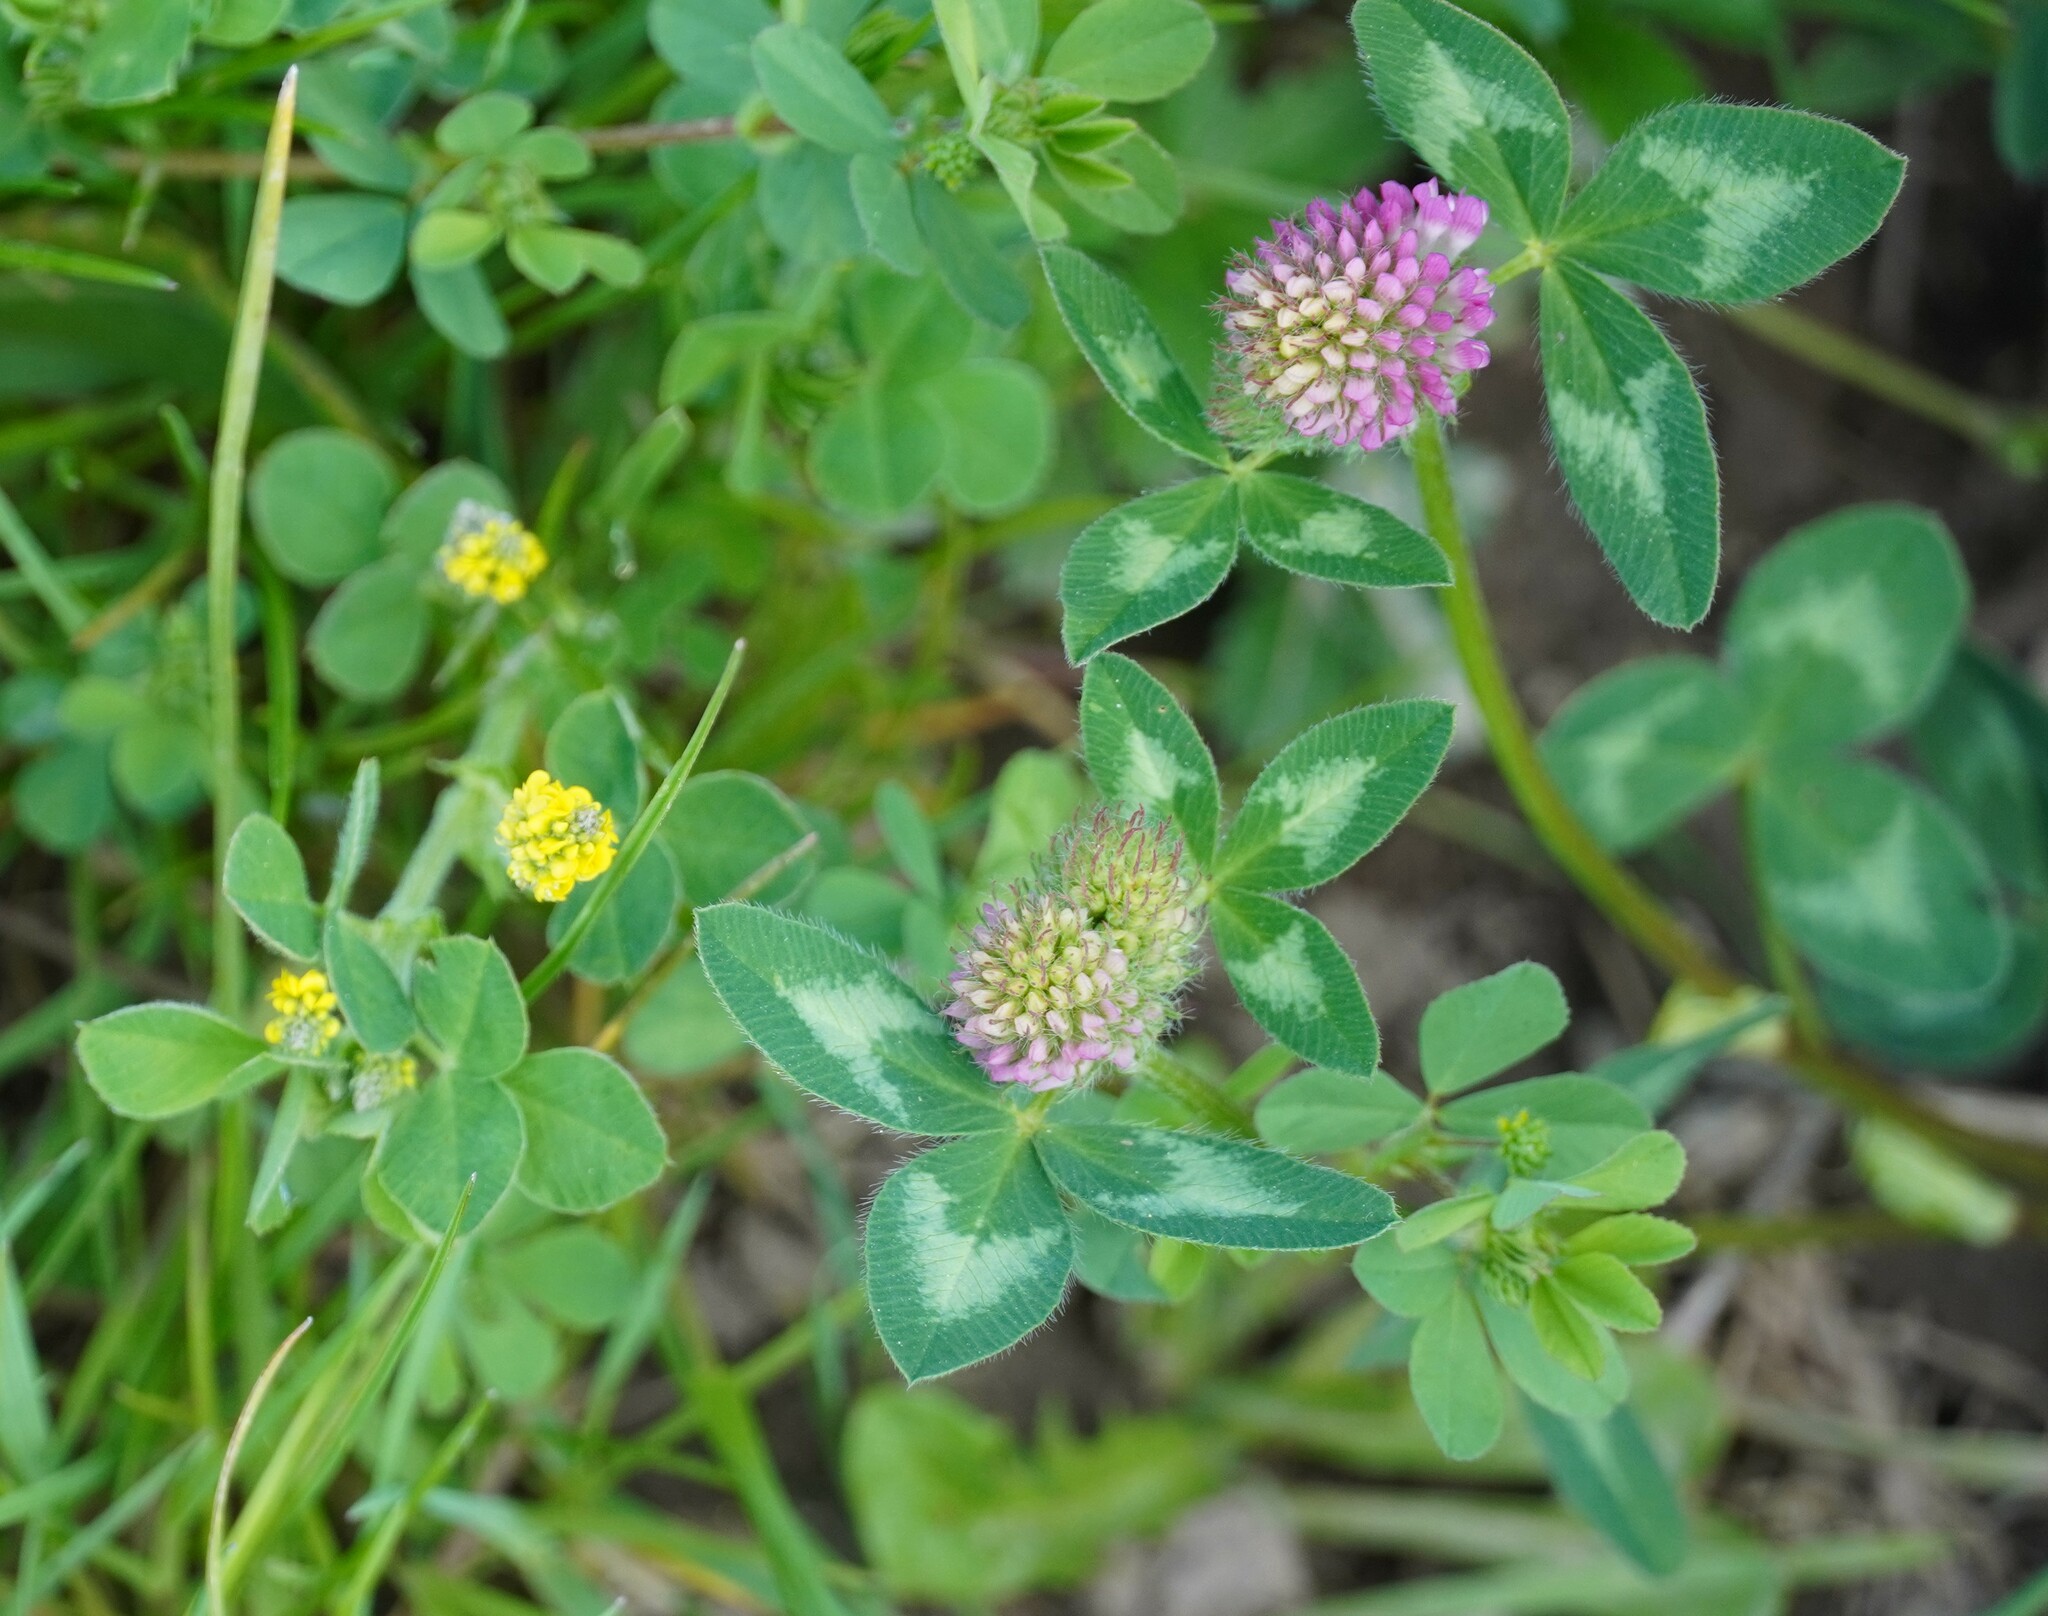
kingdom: Plantae
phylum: Tracheophyta
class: Magnoliopsida
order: Fabales
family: Fabaceae
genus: Trifolium
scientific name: Trifolium pratense
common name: Red clover
